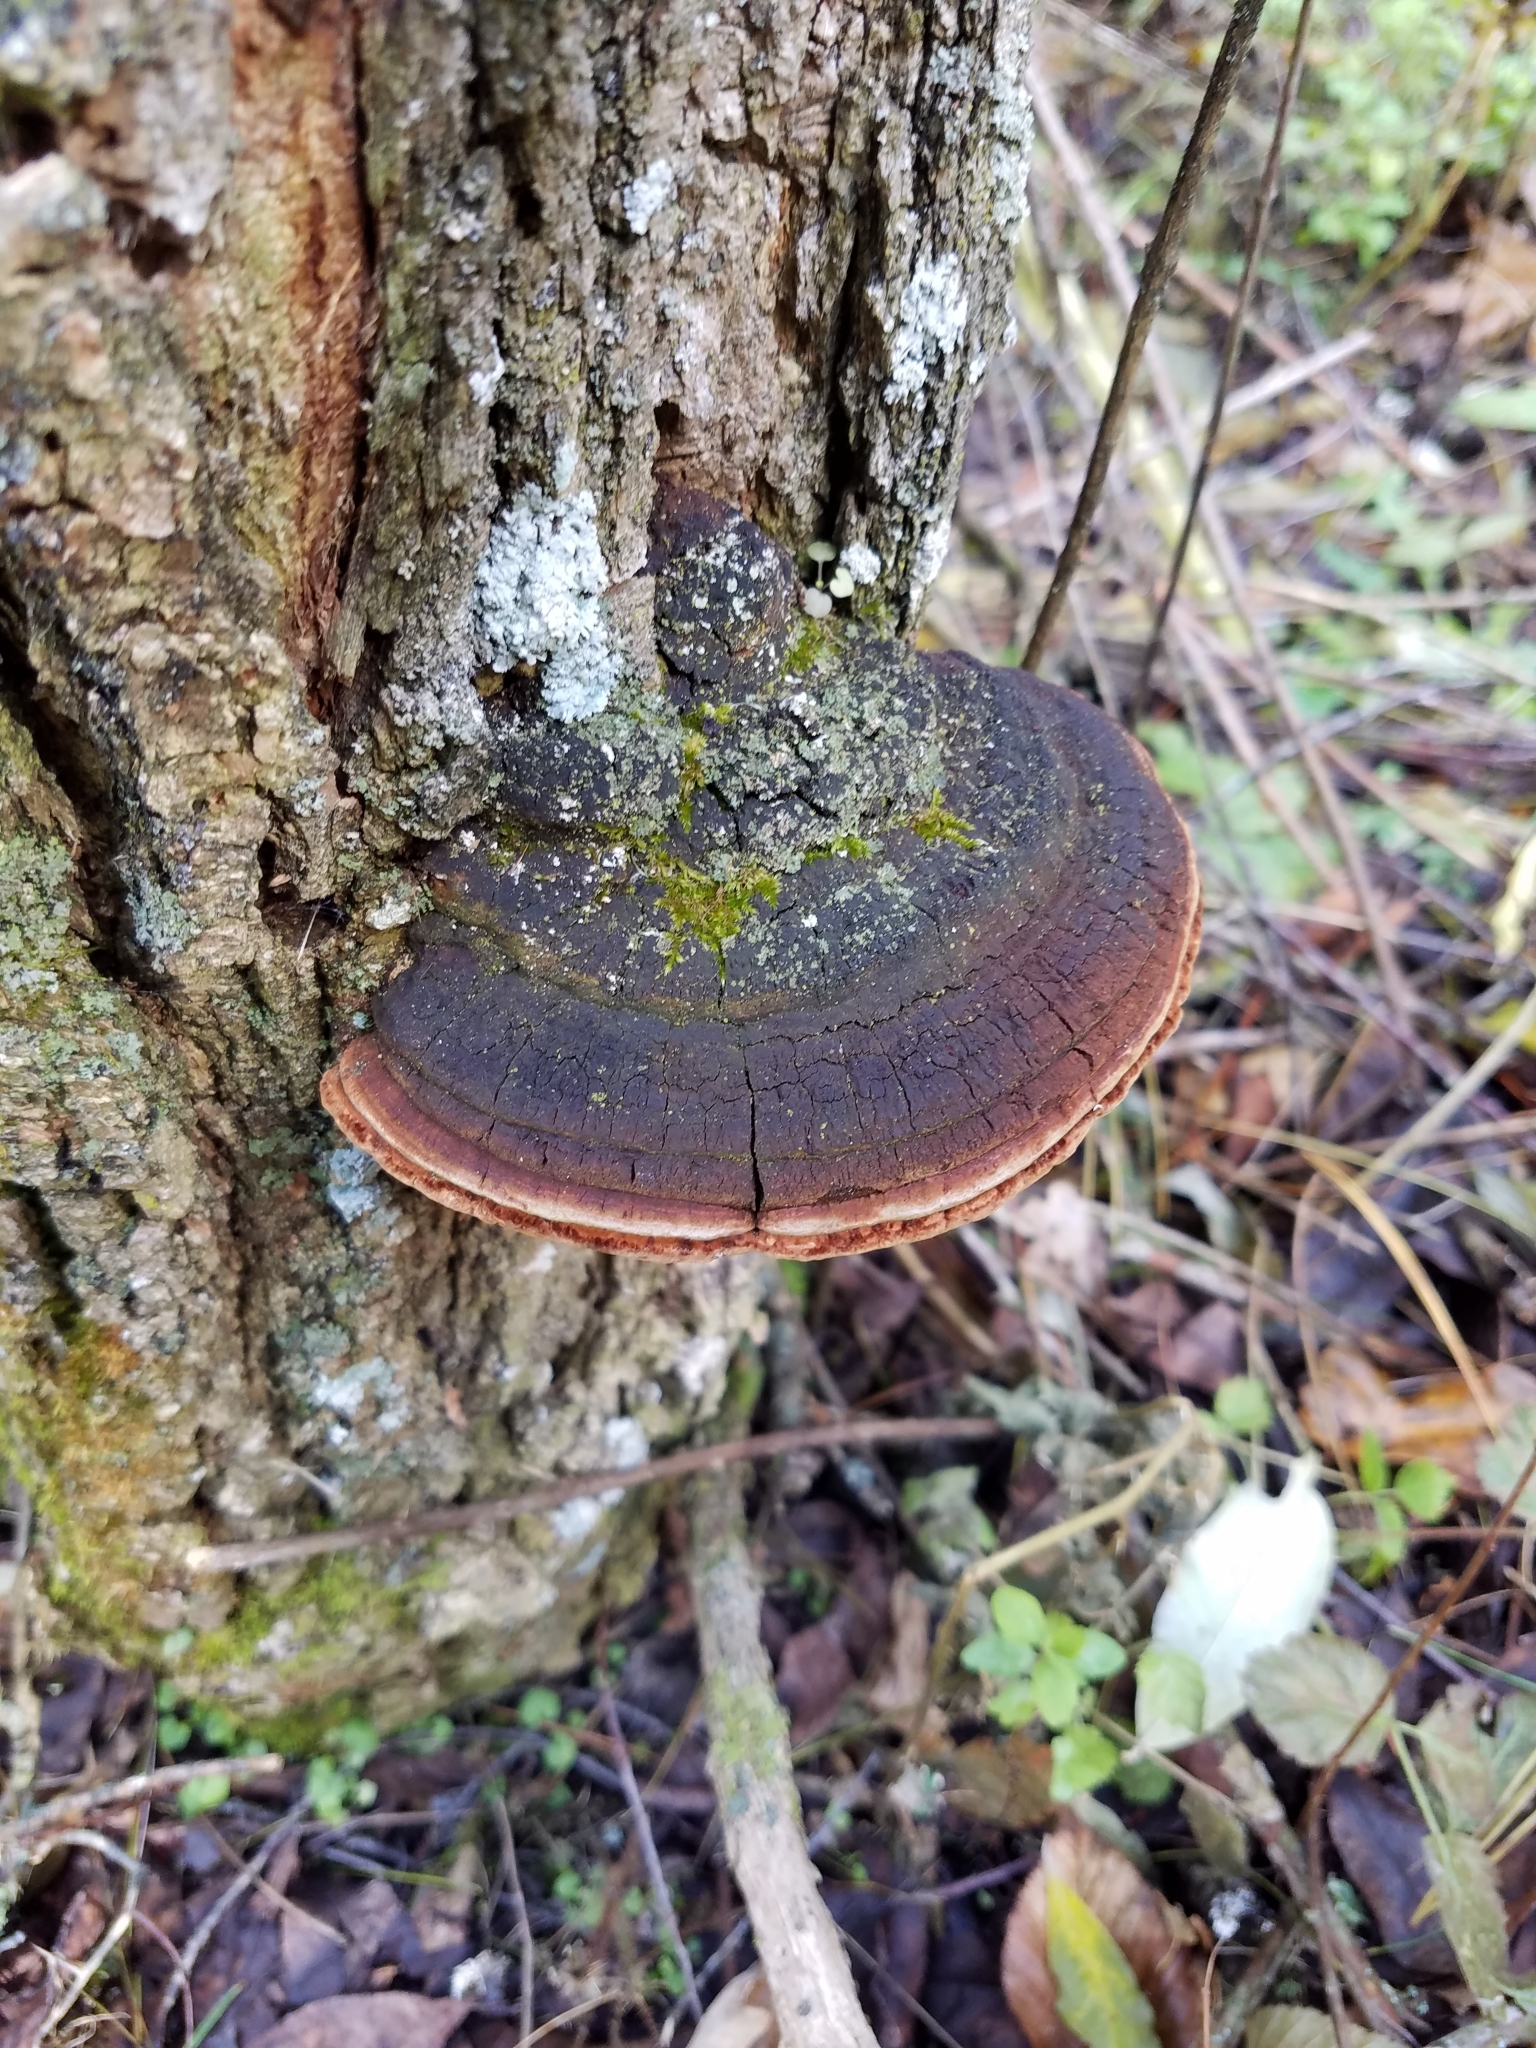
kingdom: Fungi
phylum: Basidiomycota
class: Agaricomycetes
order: Hymenochaetales
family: Hymenochaetaceae
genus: Phellinus
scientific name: Phellinus robiniae
